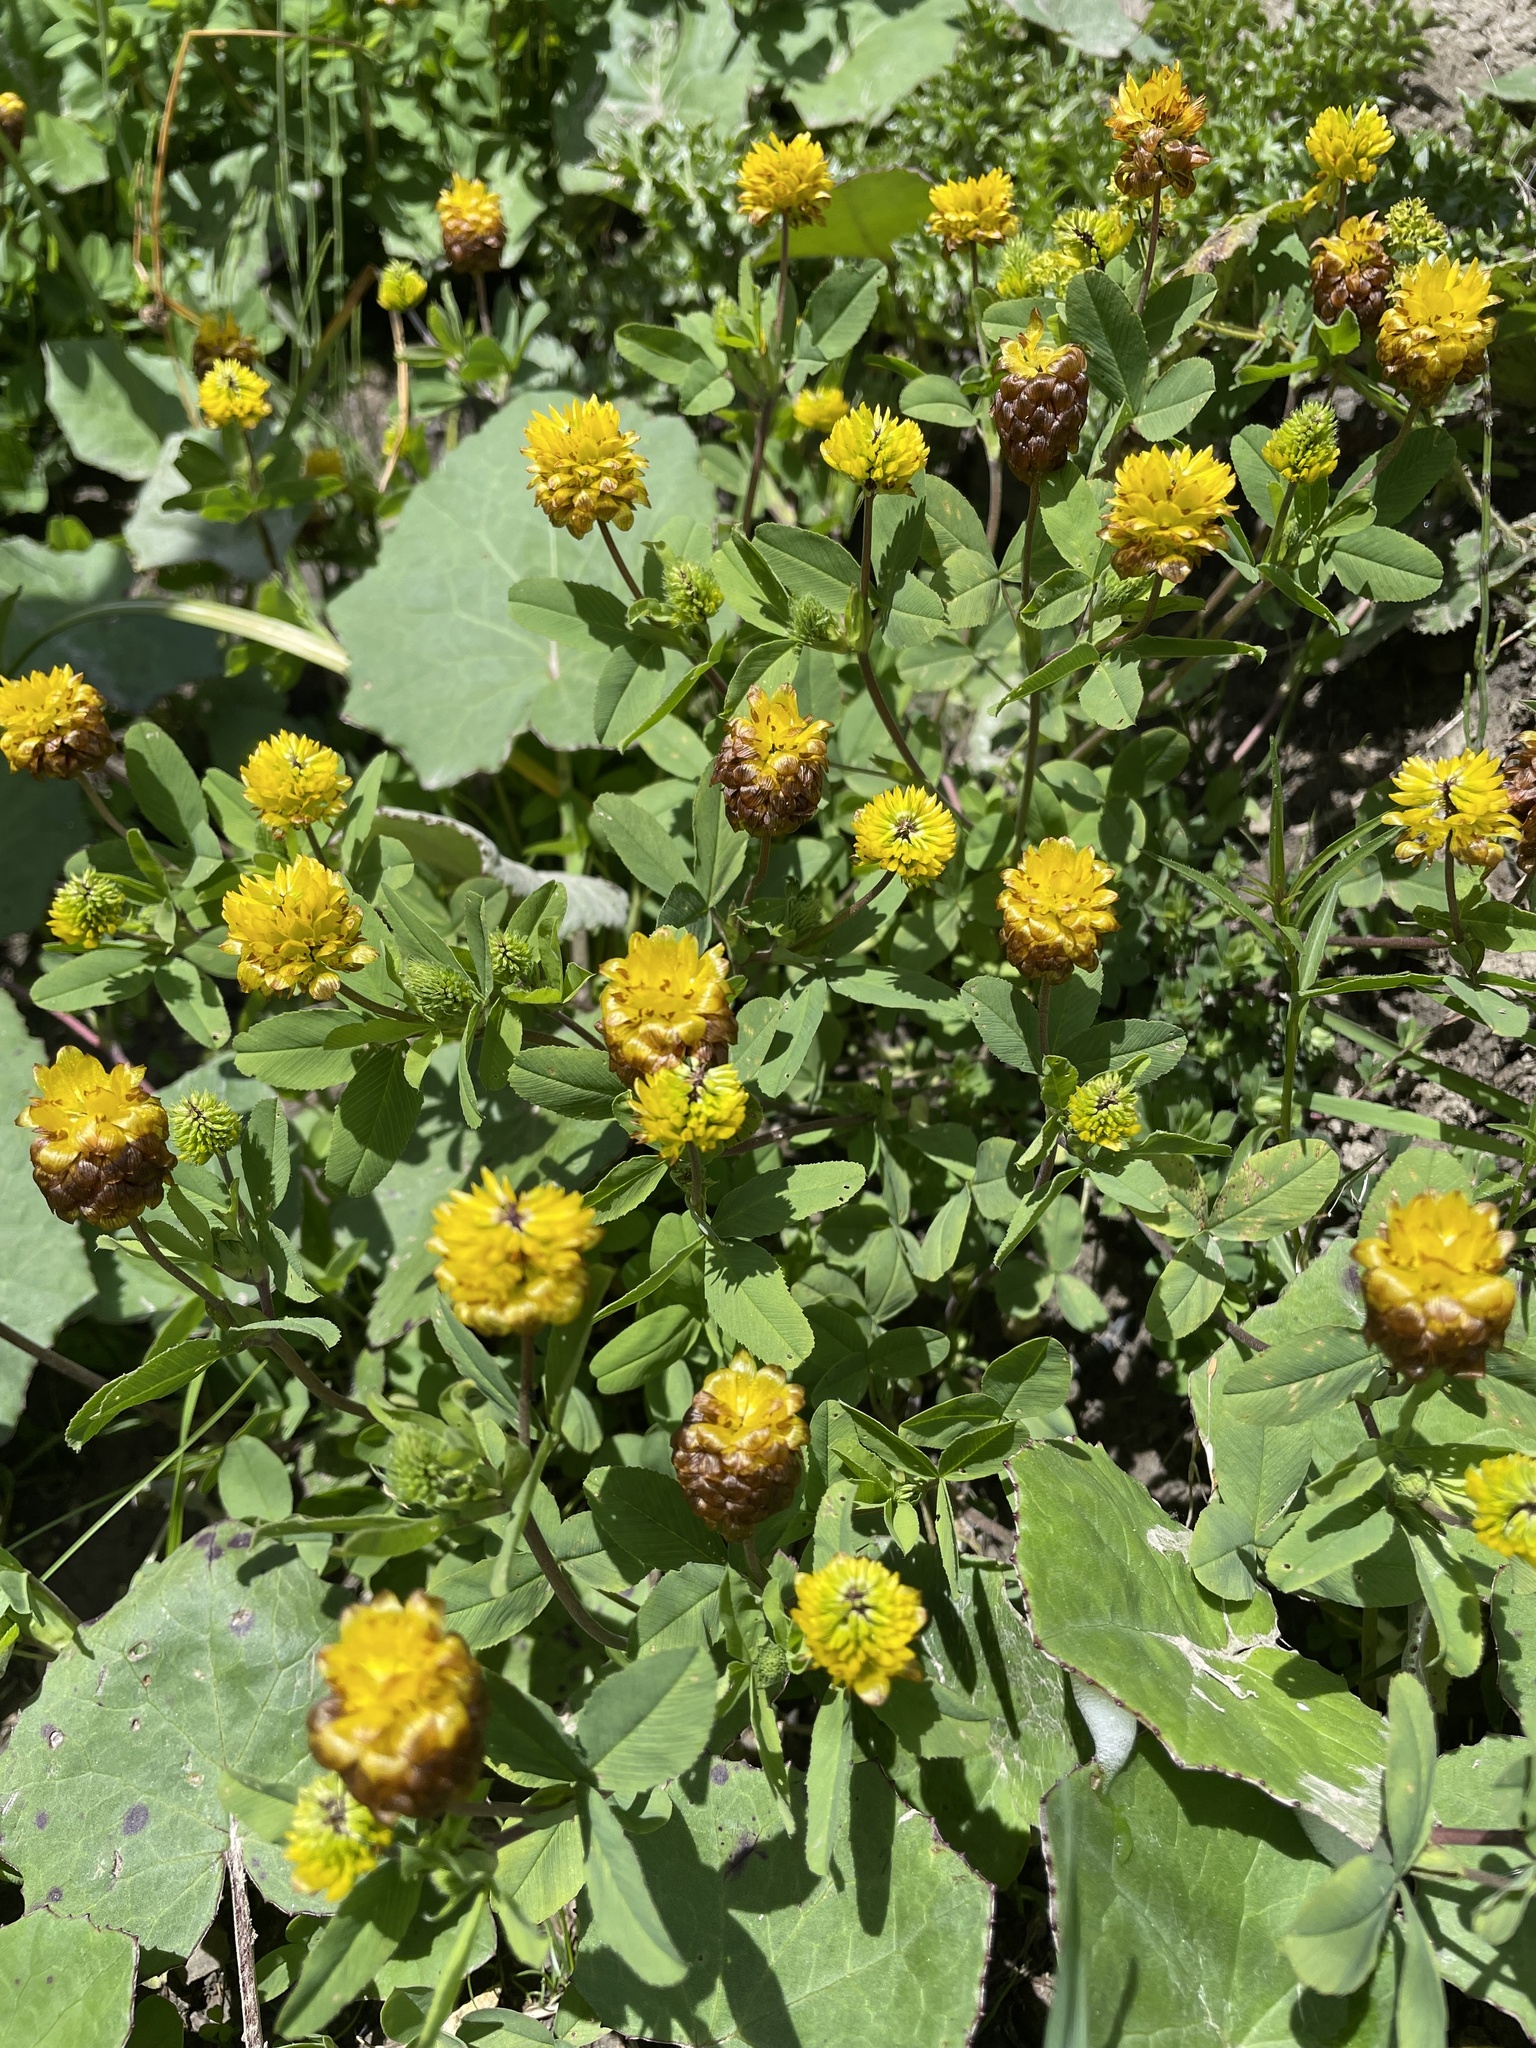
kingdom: Plantae
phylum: Tracheophyta
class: Magnoliopsida
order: Fabales
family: Fabaceae
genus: Trifolium
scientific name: Trifolium badium
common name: Brown clover
